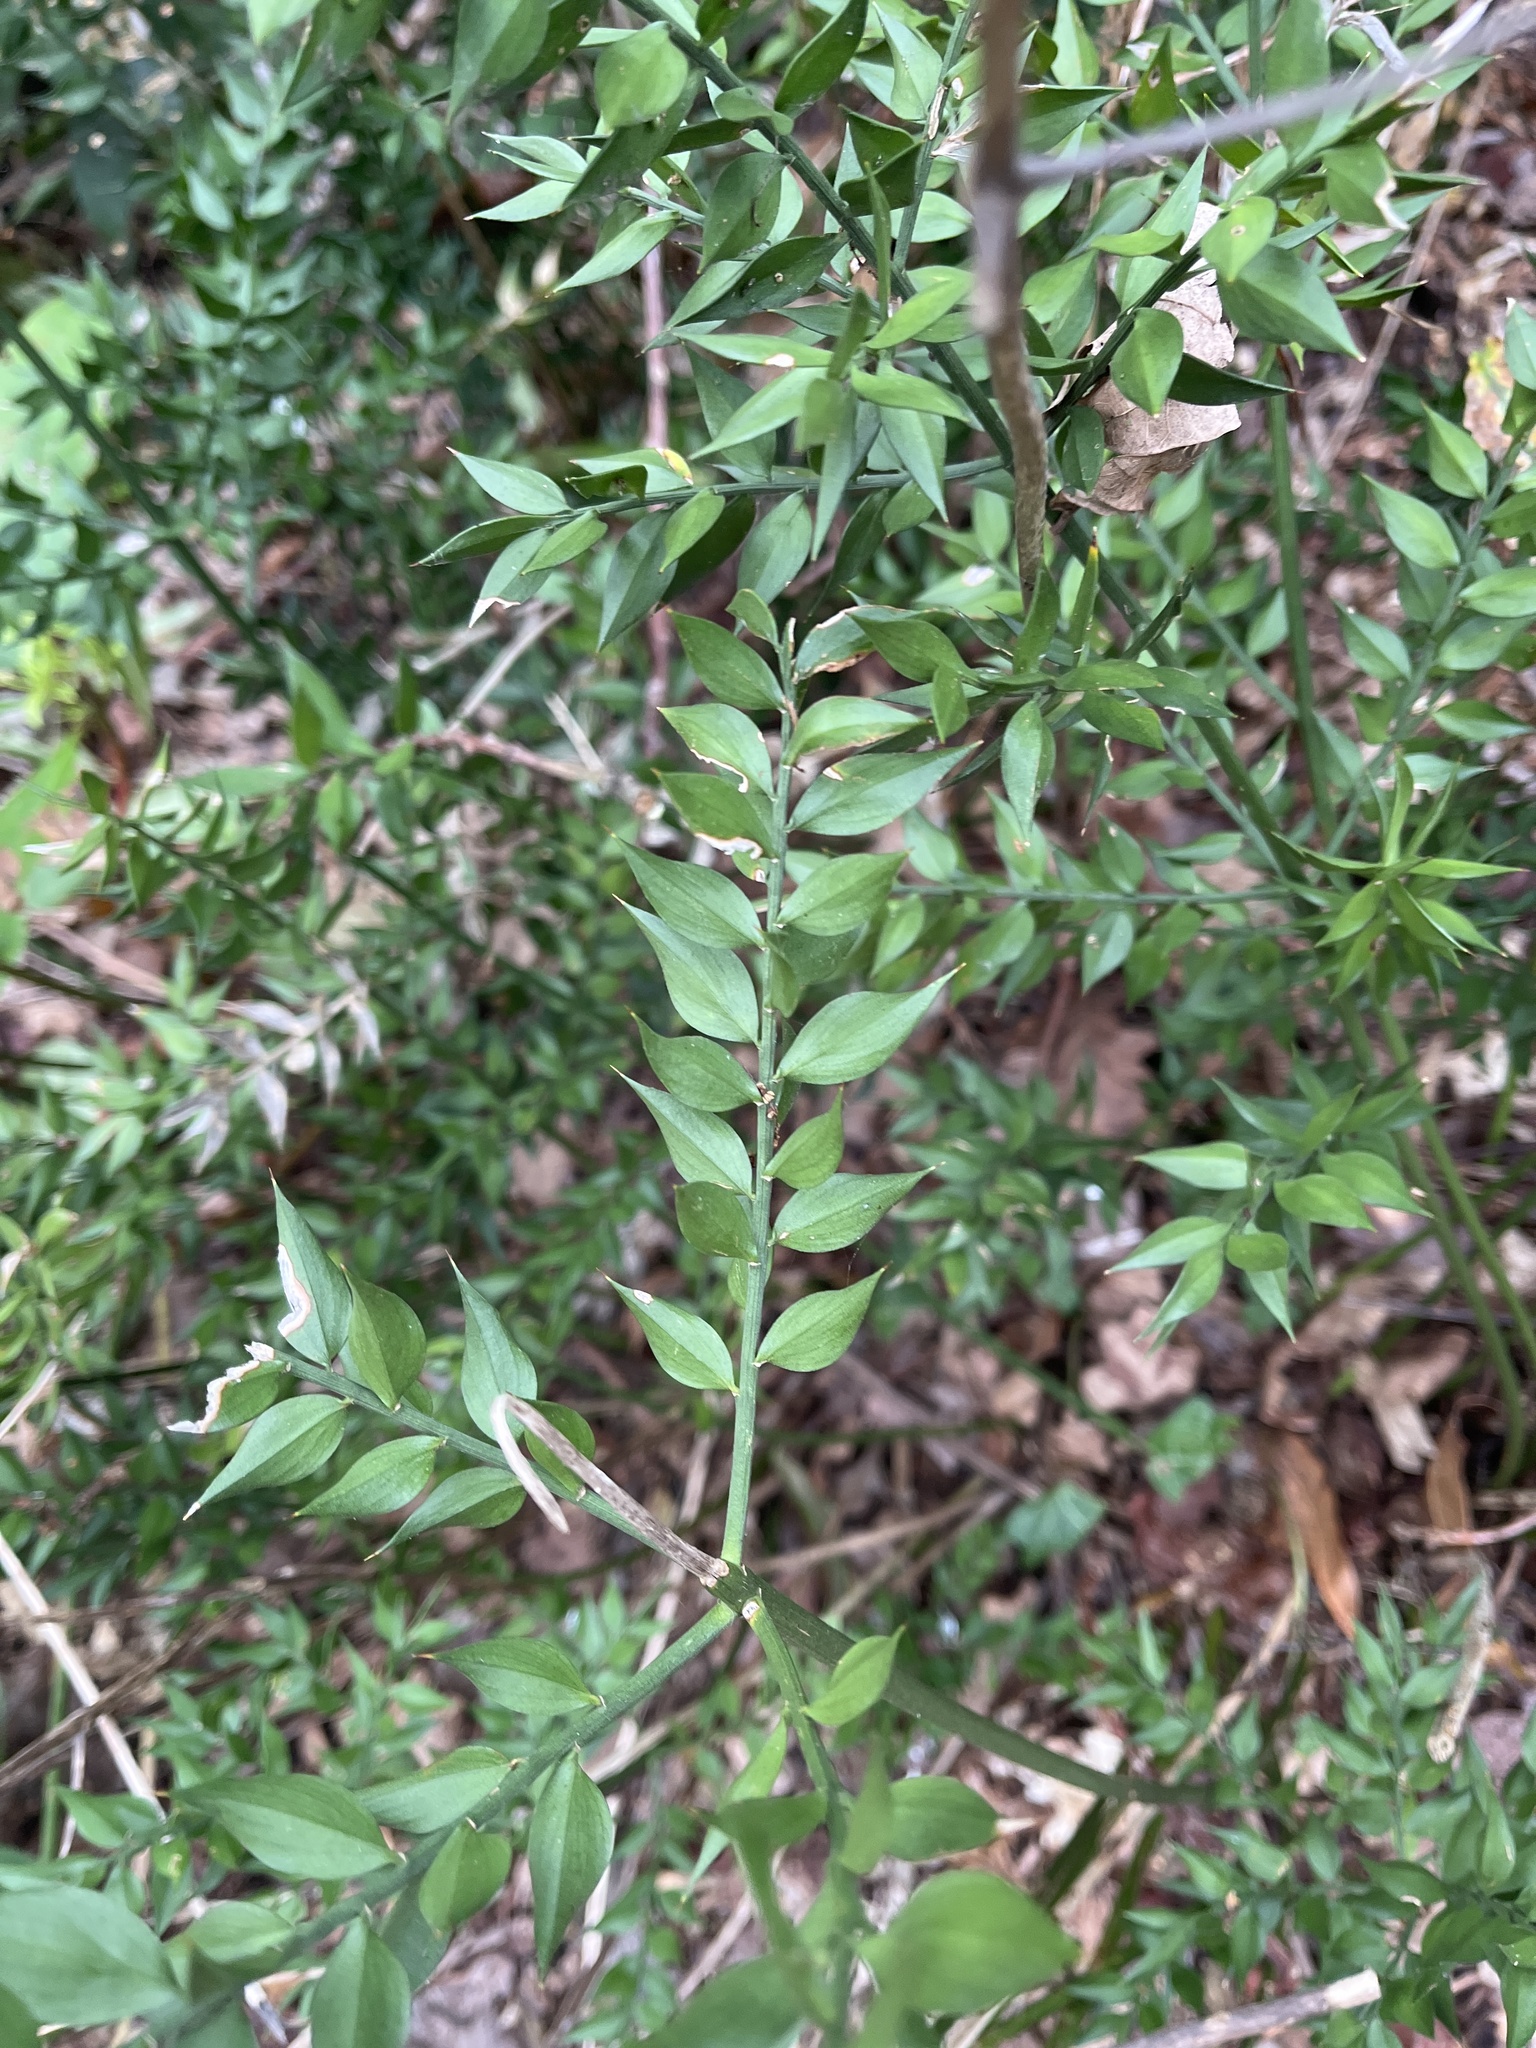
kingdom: Plantae
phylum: Tracheophyta
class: Liliopsida
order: Asparagales
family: Asparagaceae
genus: Ruscus
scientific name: Ruscus aculeatus
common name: Butcher's-broom
